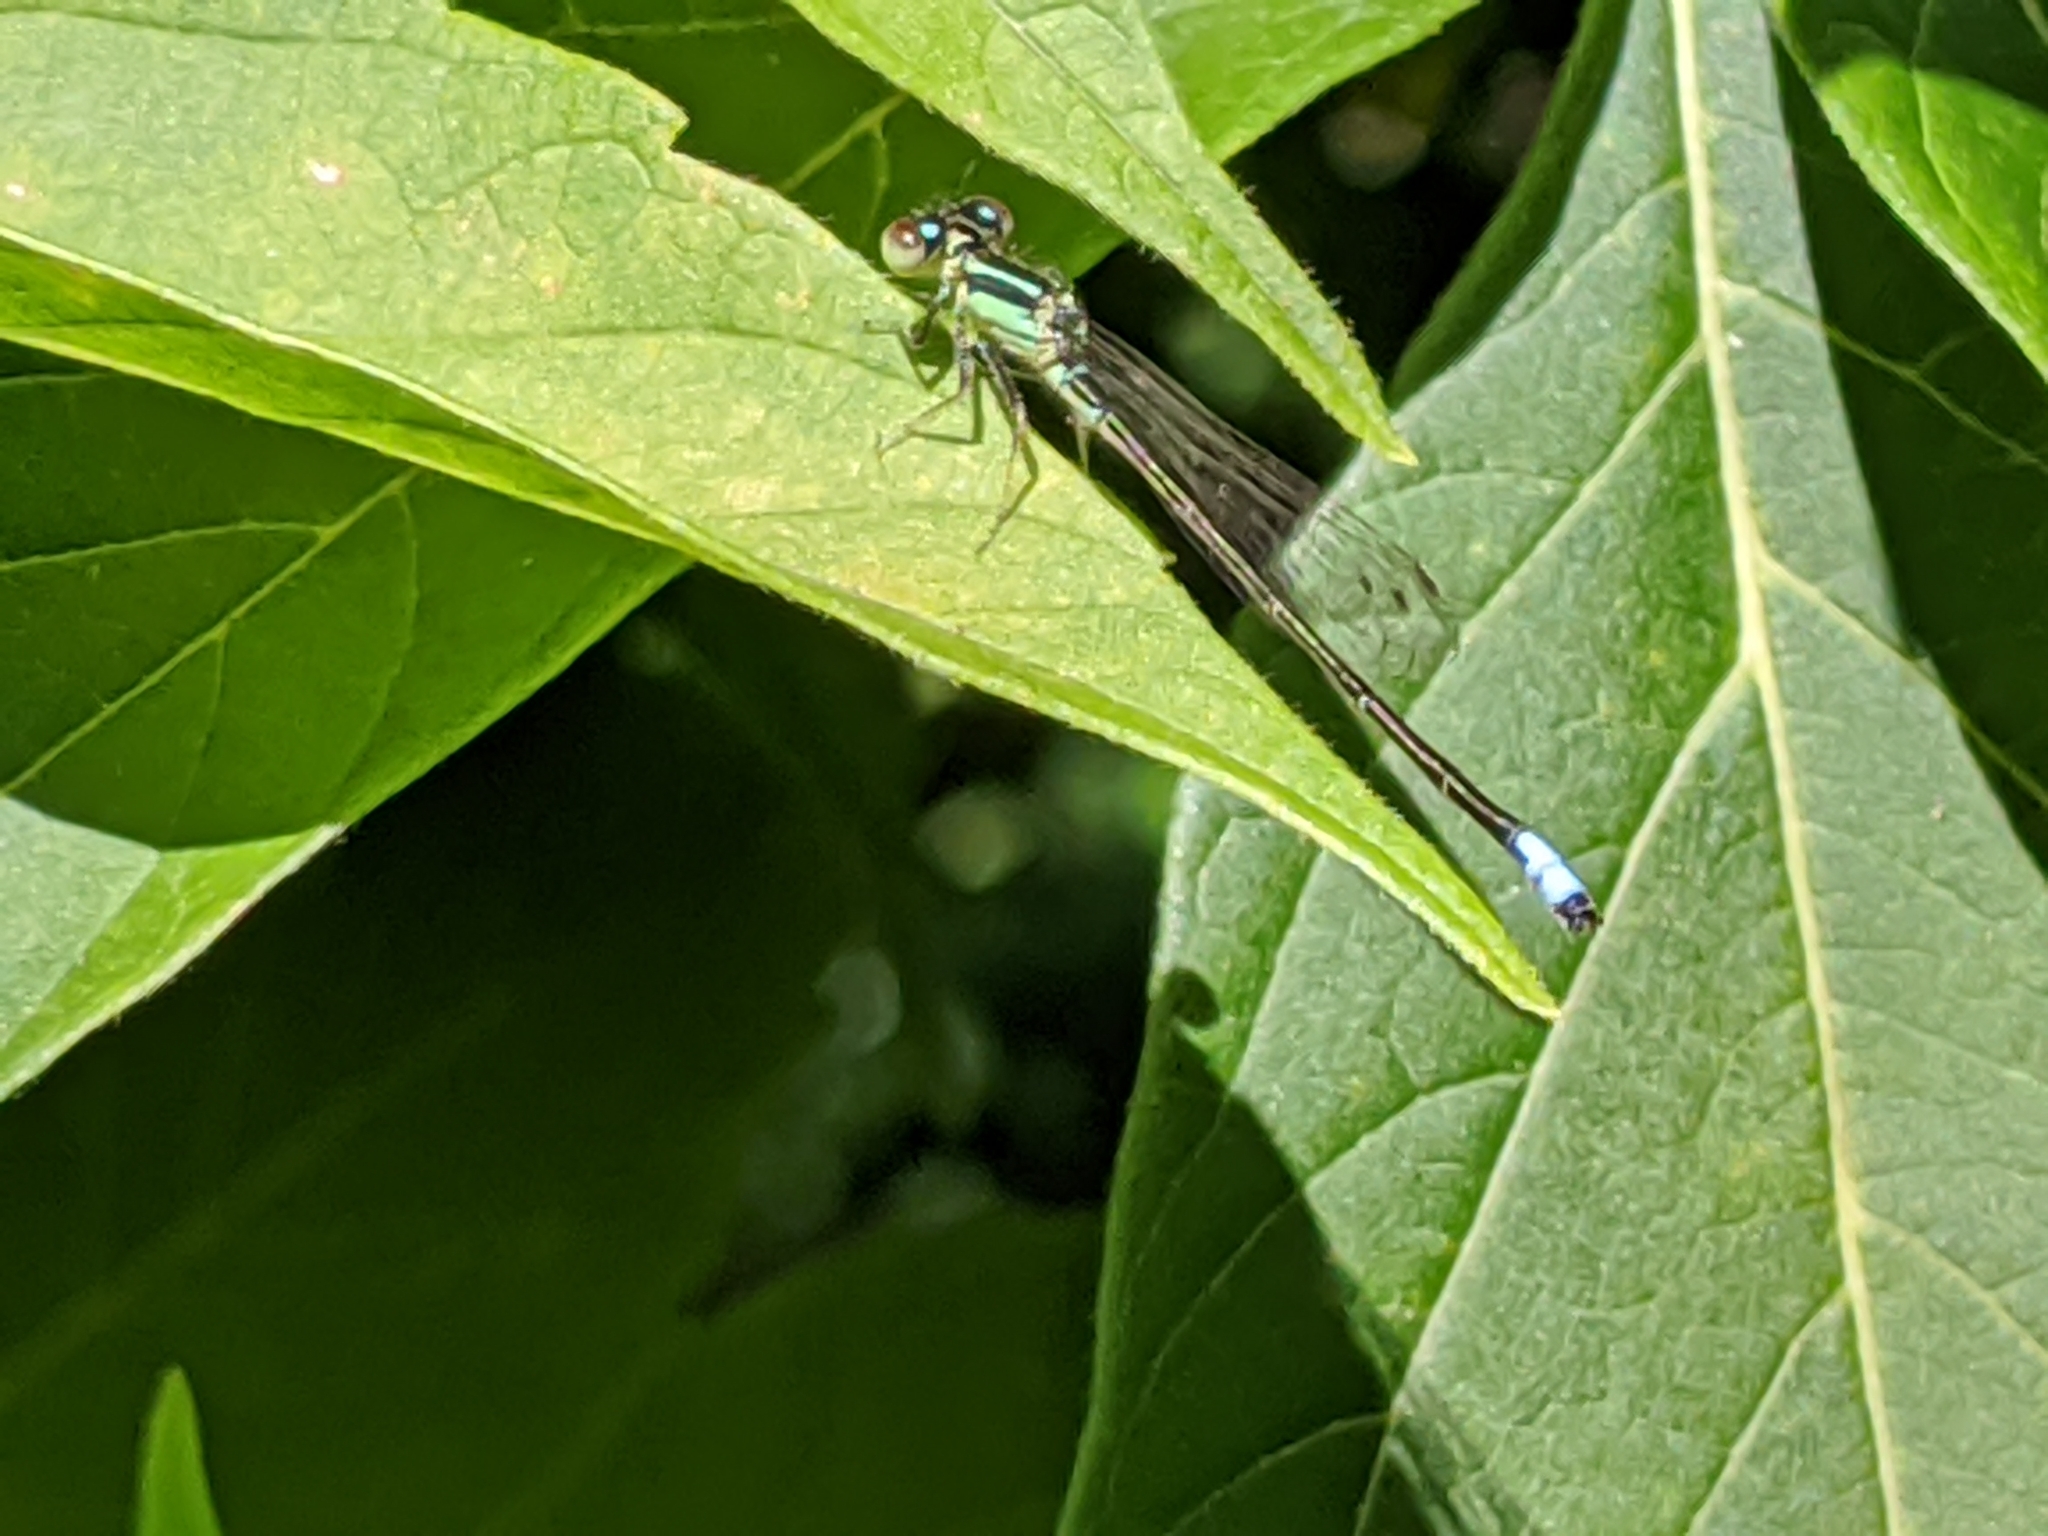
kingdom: Animalia
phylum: Arthropoda
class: Insecta
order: Odonata
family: Coenagrionidae
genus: Ischnura
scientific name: Ischnura verticalis
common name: Eastern forktail
